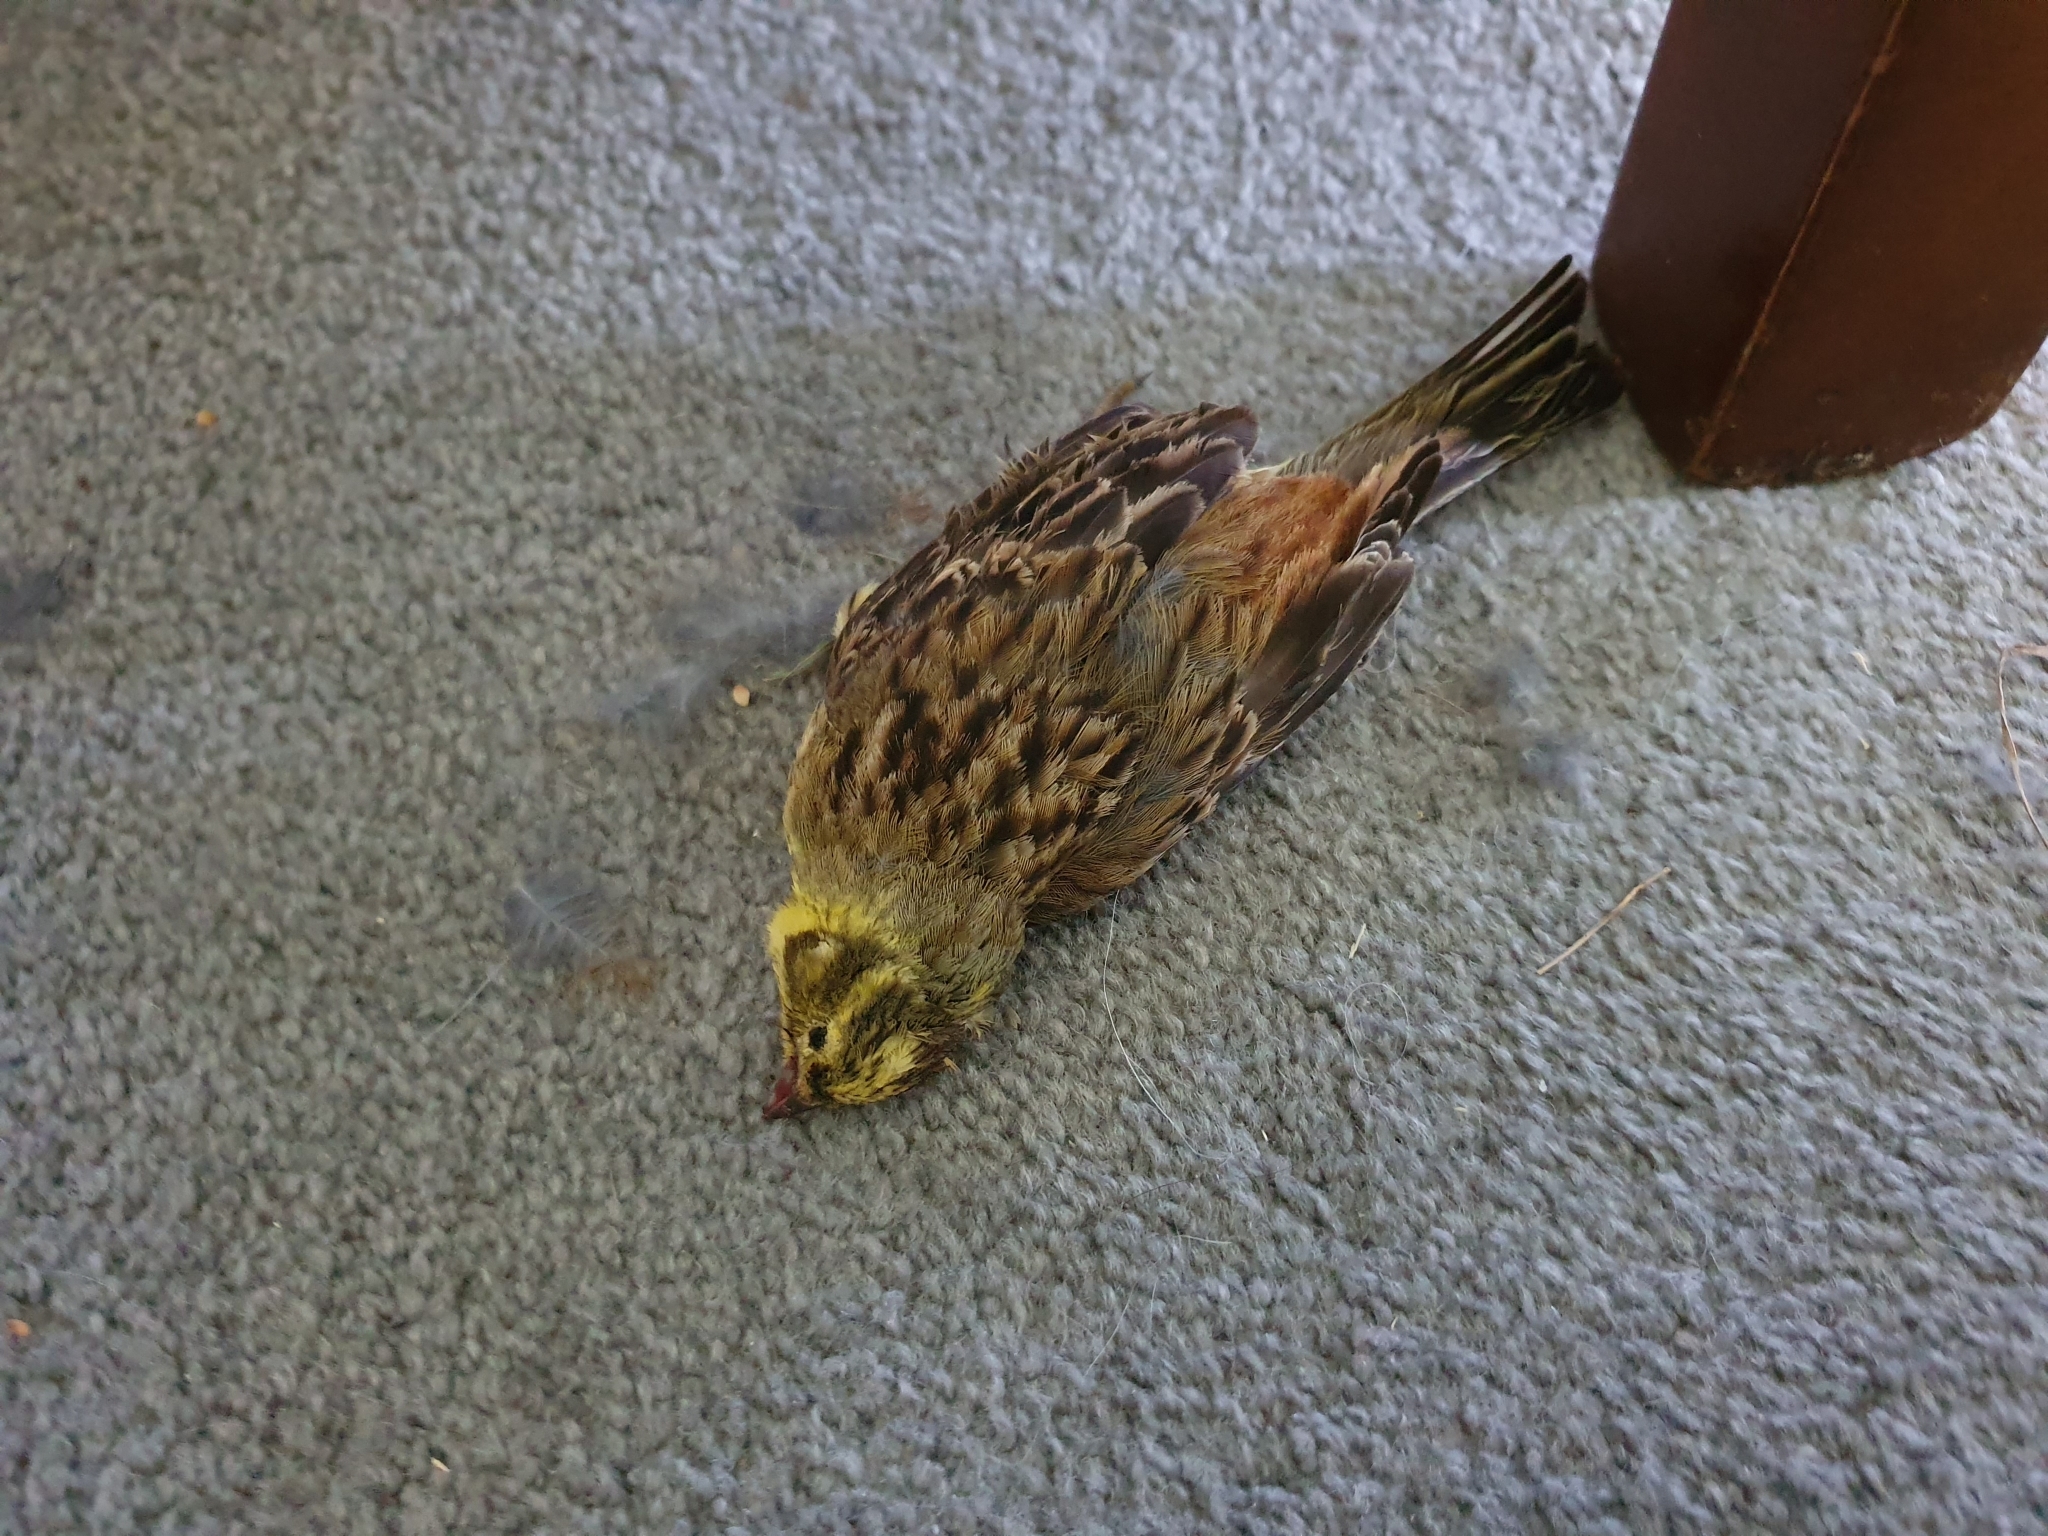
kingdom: Animalia
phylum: Chordata
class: Aves
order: Passeriformes
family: Emberizidae
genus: Emberiza
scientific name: Emberiza citrinella
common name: Yellowhammer
